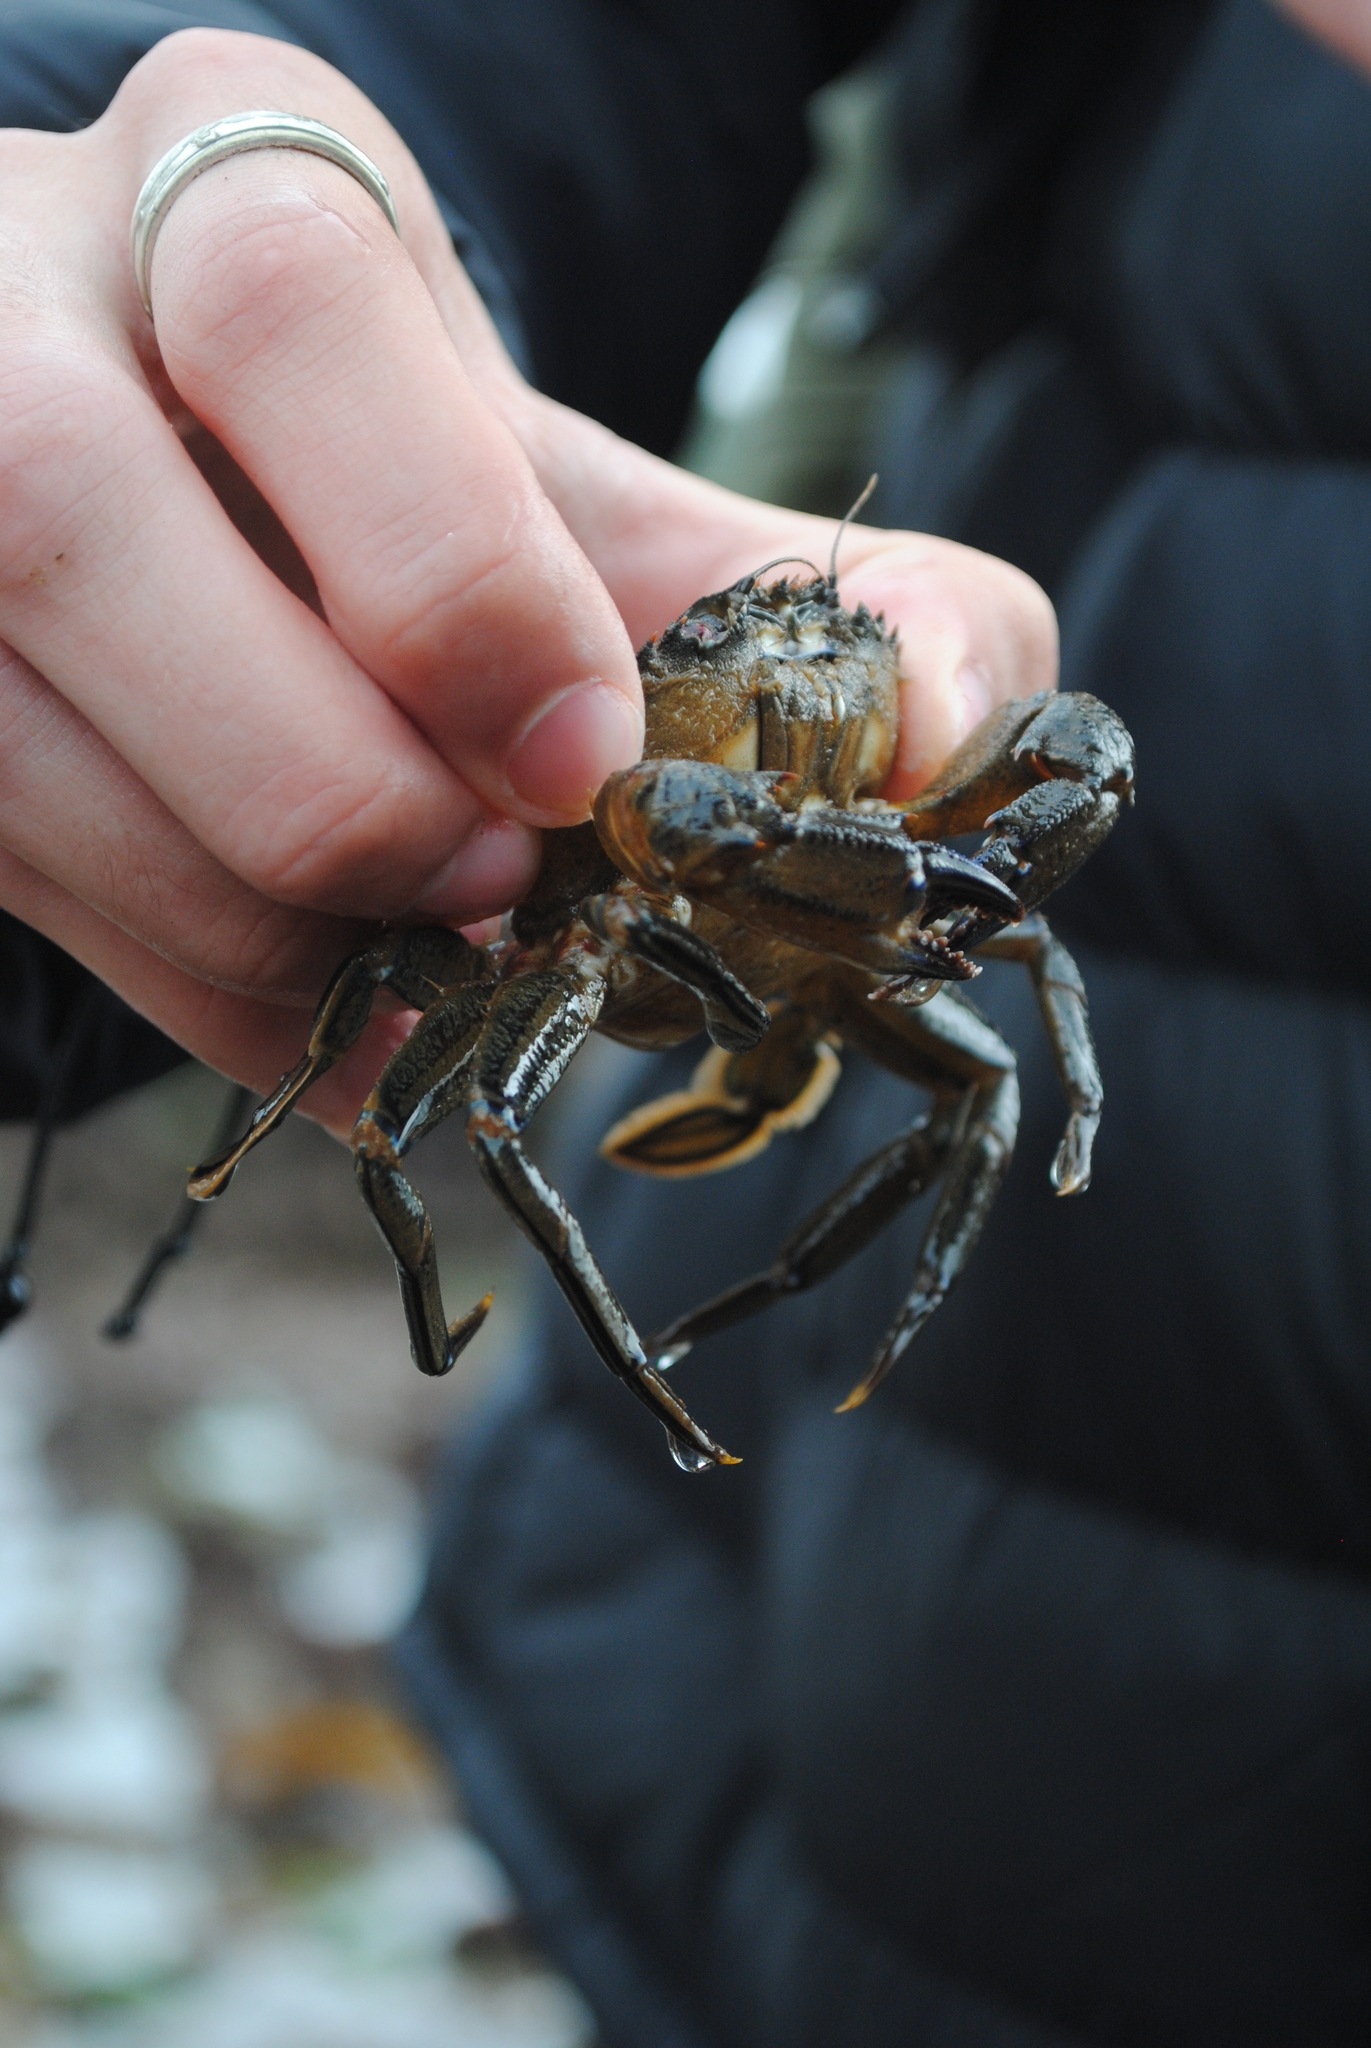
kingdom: Animalia
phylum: Arthropoda
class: Malacostraca
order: Decapoda
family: Polybiidae
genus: Necora
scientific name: Necora puber
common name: Velvet swimming crab
